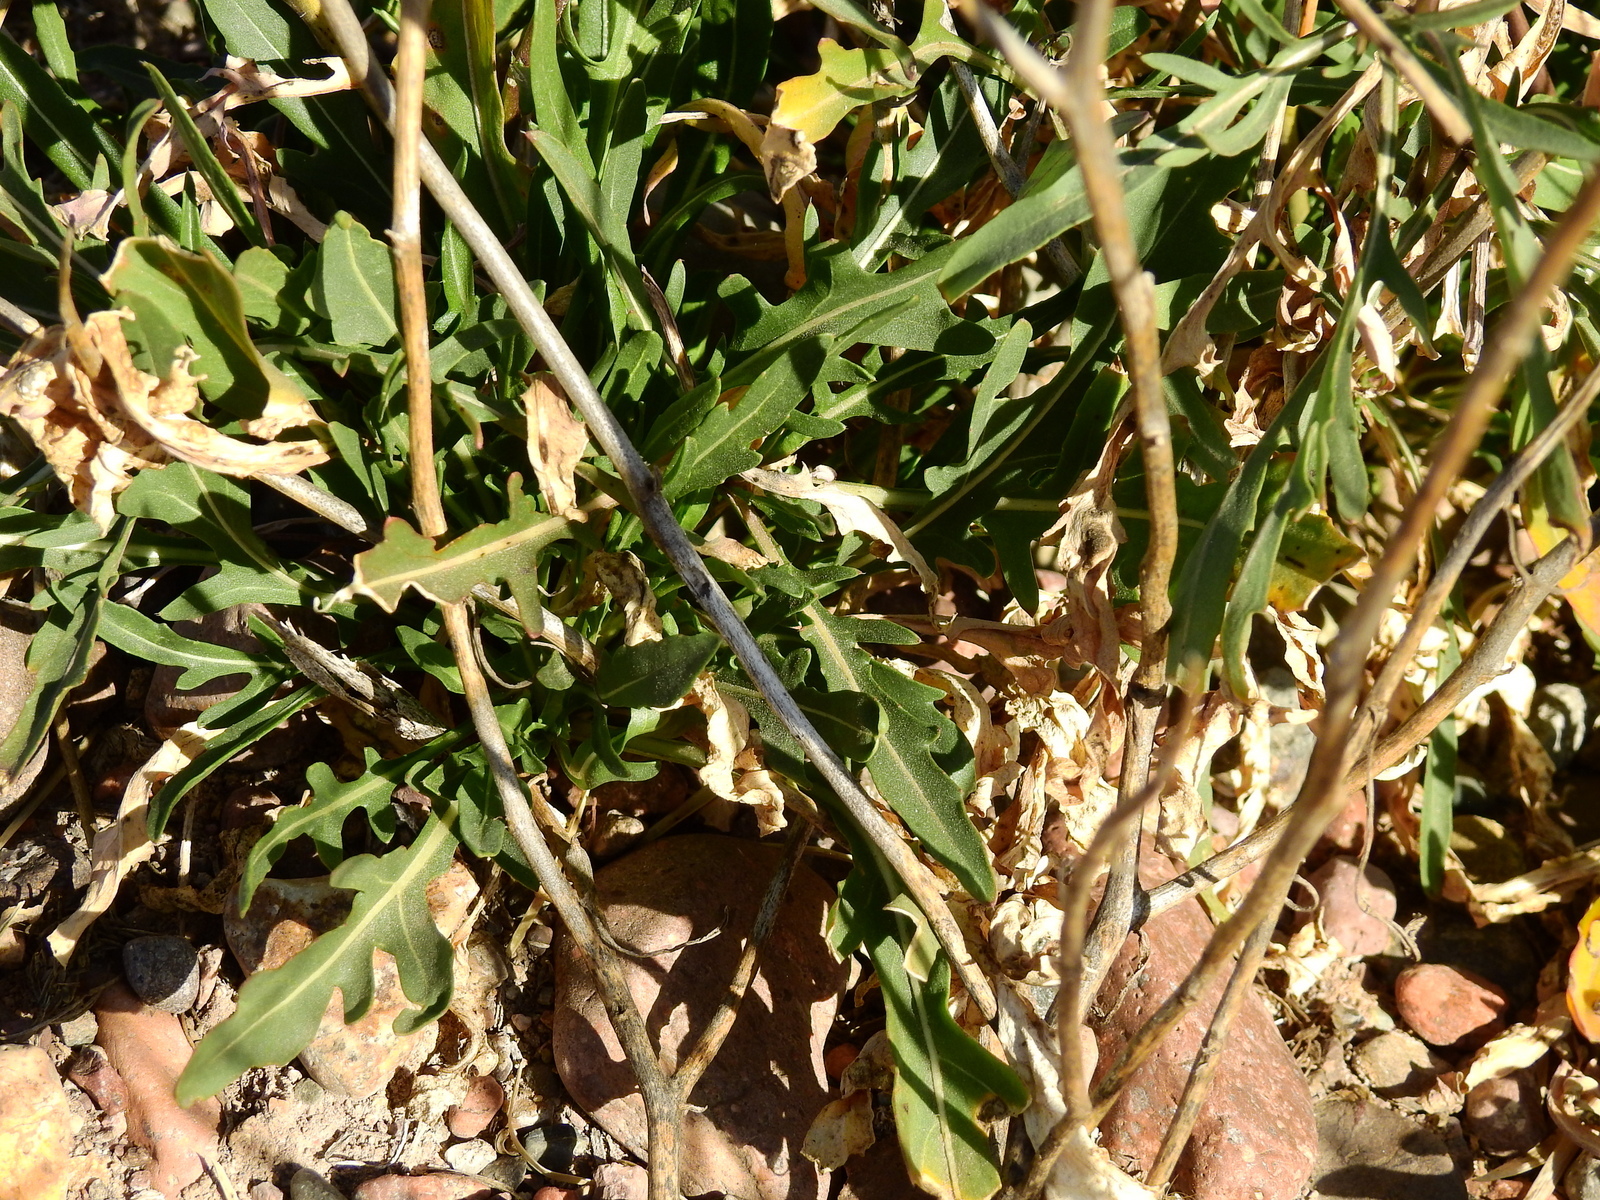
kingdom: Plantae
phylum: Tracheophyta
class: Magnoliopsida
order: Brassicales
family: Brassicaceae
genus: Diplotaxis
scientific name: Diplotaxis tenuifolia
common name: Perennial wall-rocket
